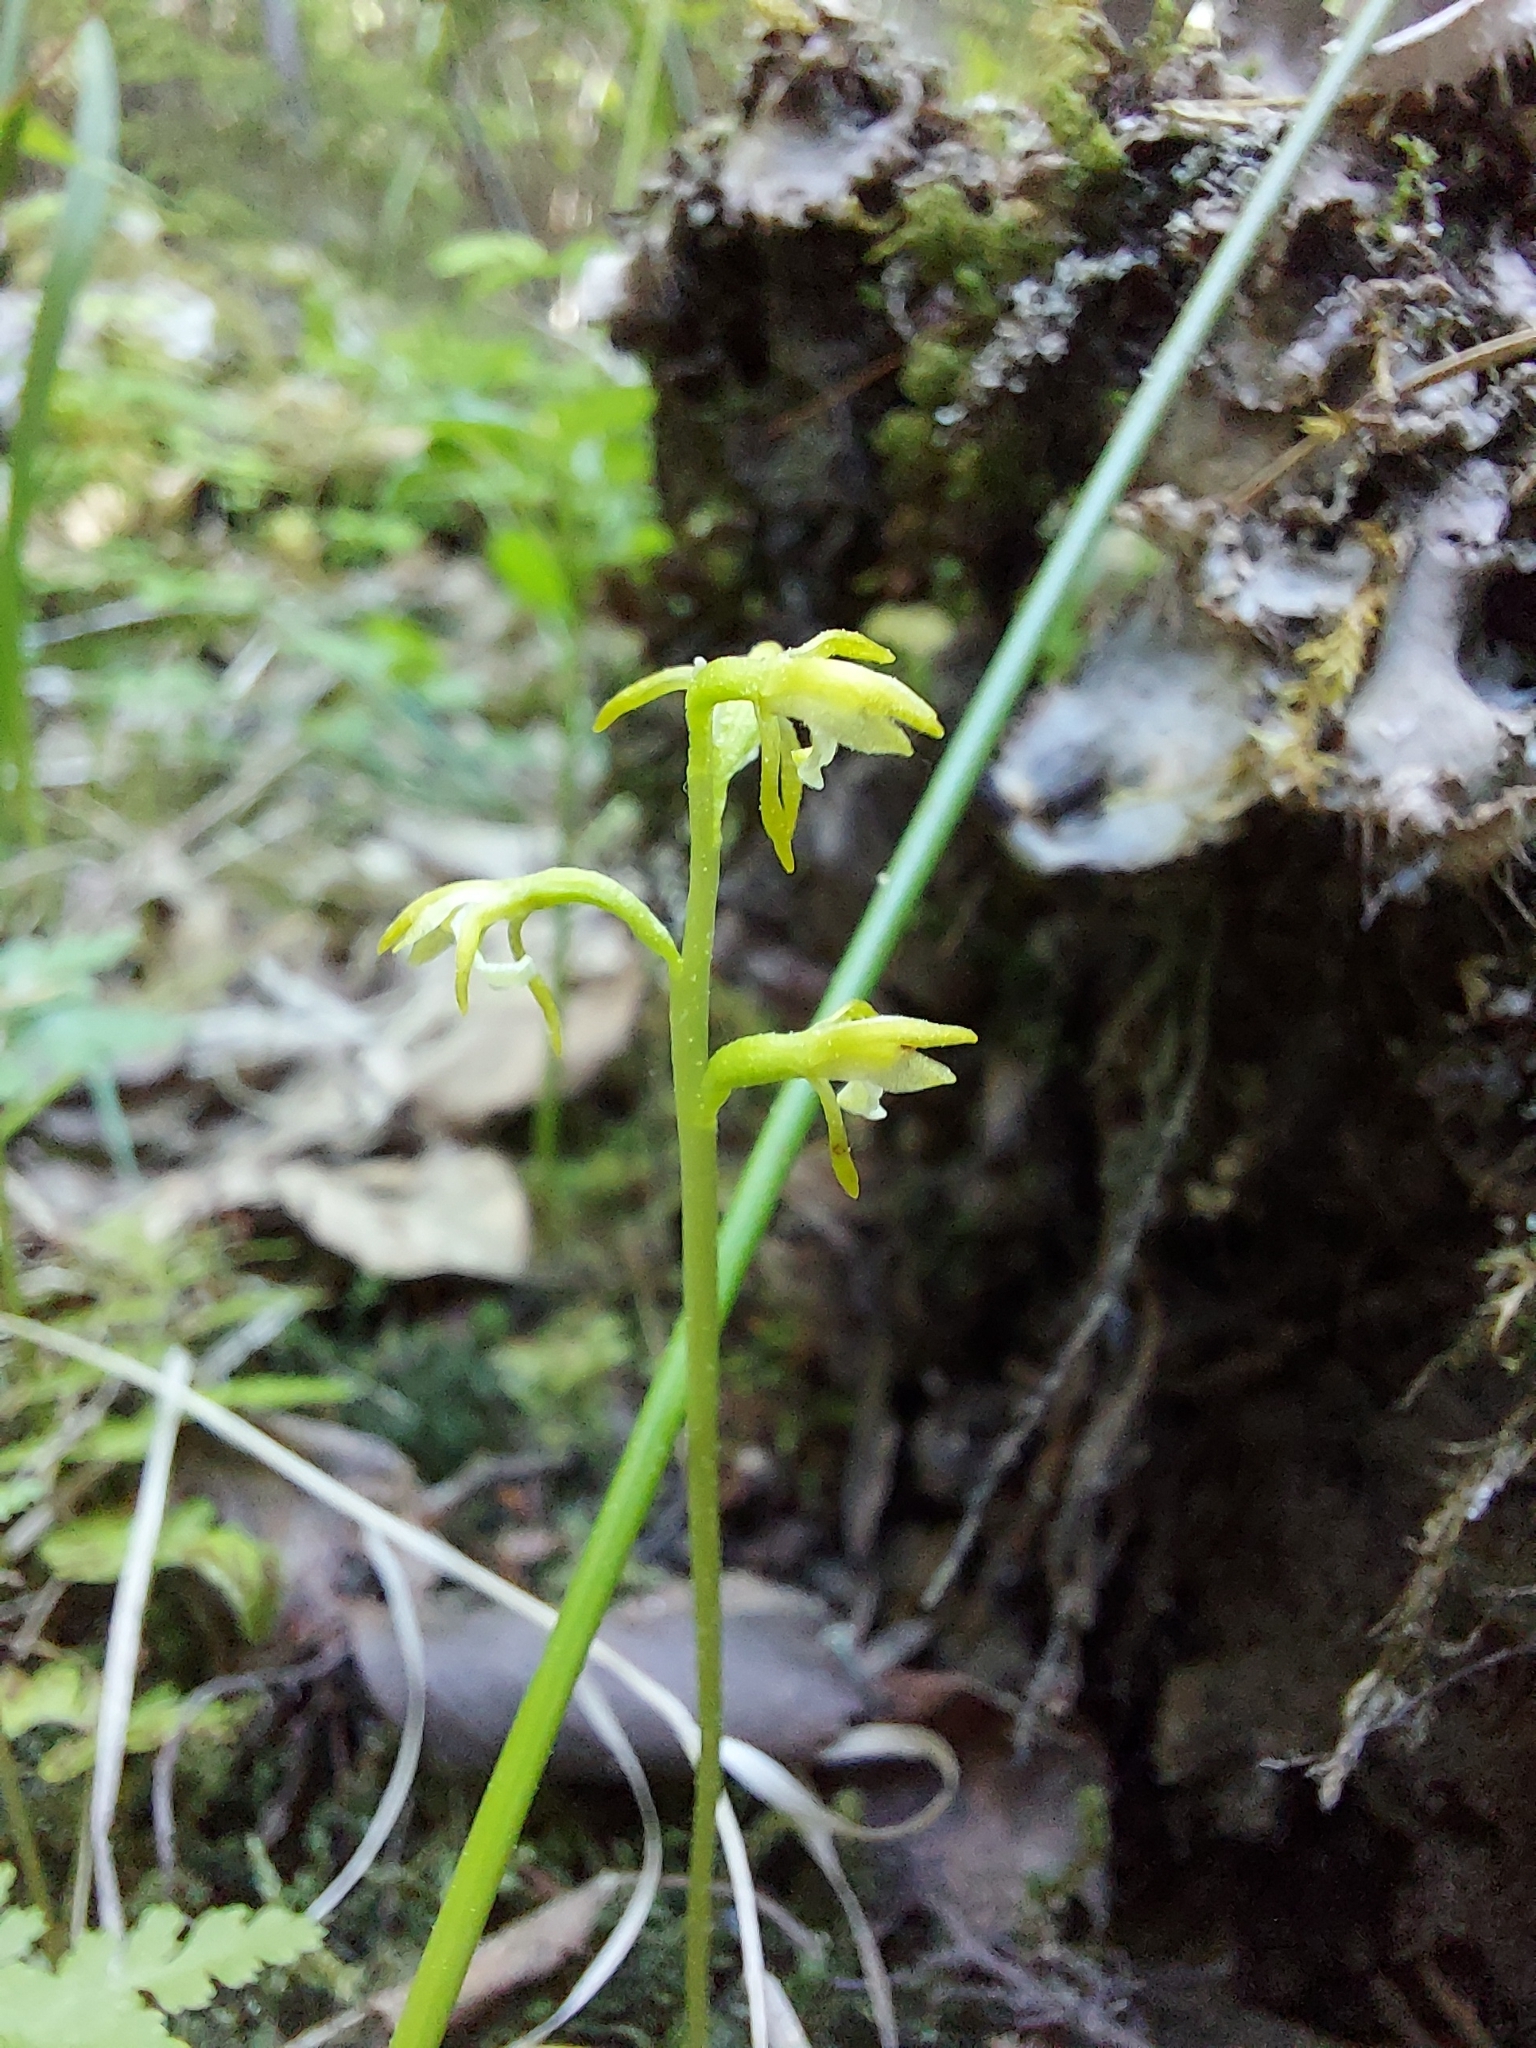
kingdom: Plantae
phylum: Tracheophyta
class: Liliopsida
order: Asparagales
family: Orchidaceae
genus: Corallorhiza
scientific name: Corallorhiza trifida
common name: Yellow coralroot
